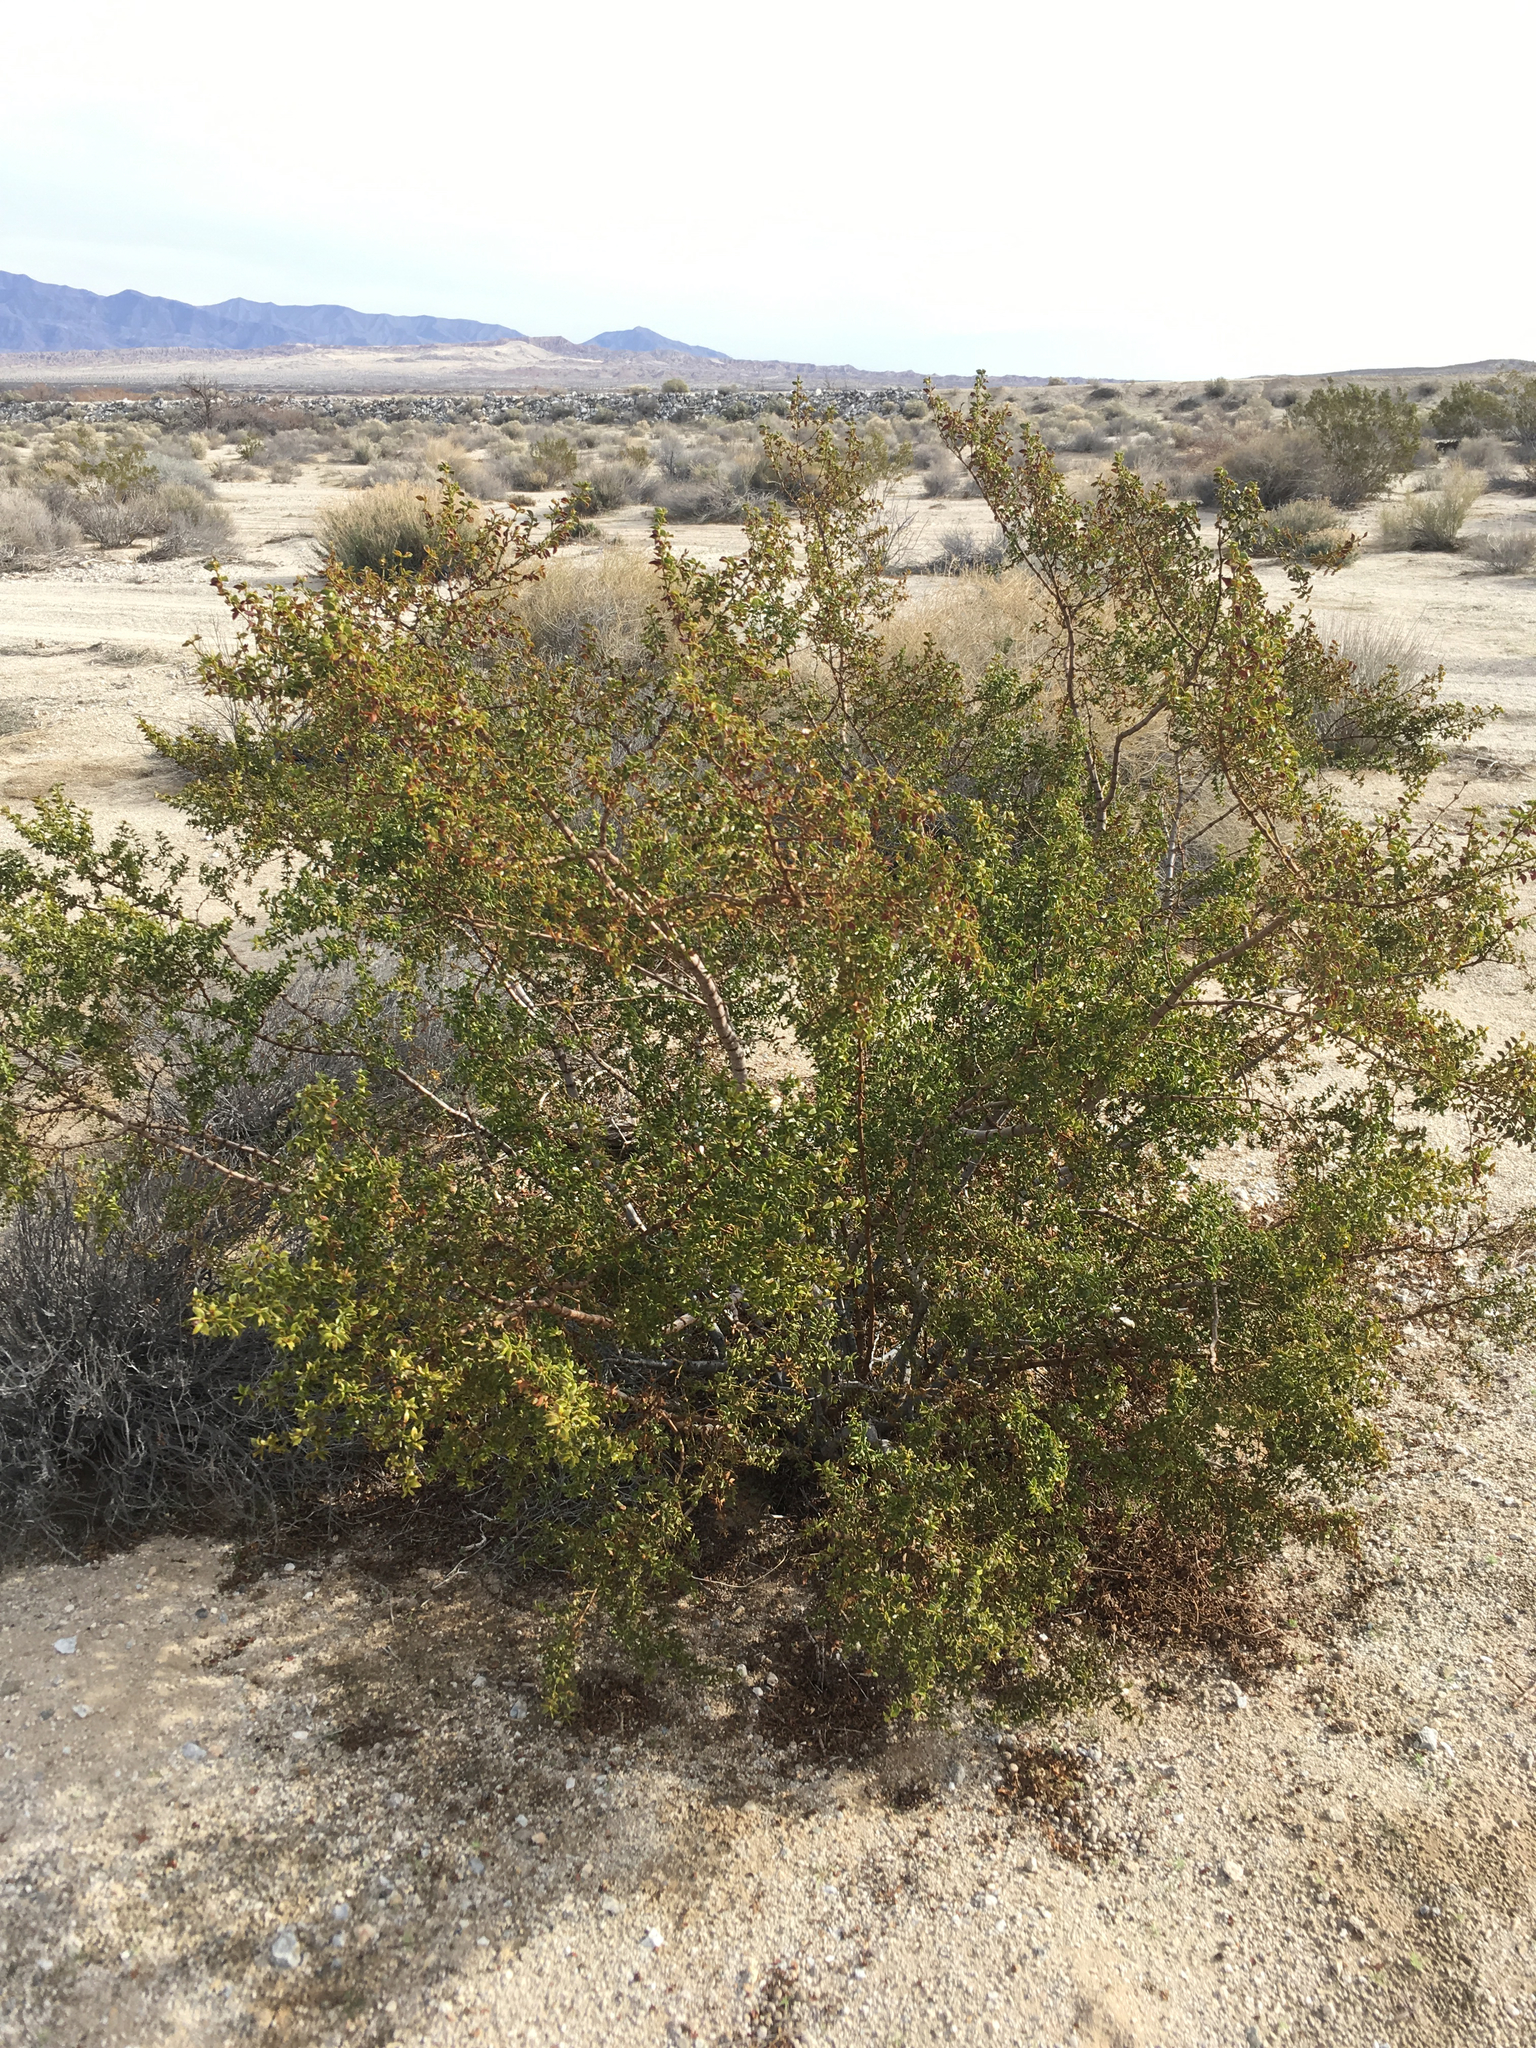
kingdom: Plantae
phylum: Tracheophyta
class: Magnoliopsida
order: Zygophyllales
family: Zygophyllaceae
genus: Larrea
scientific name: Larrea tridentata
